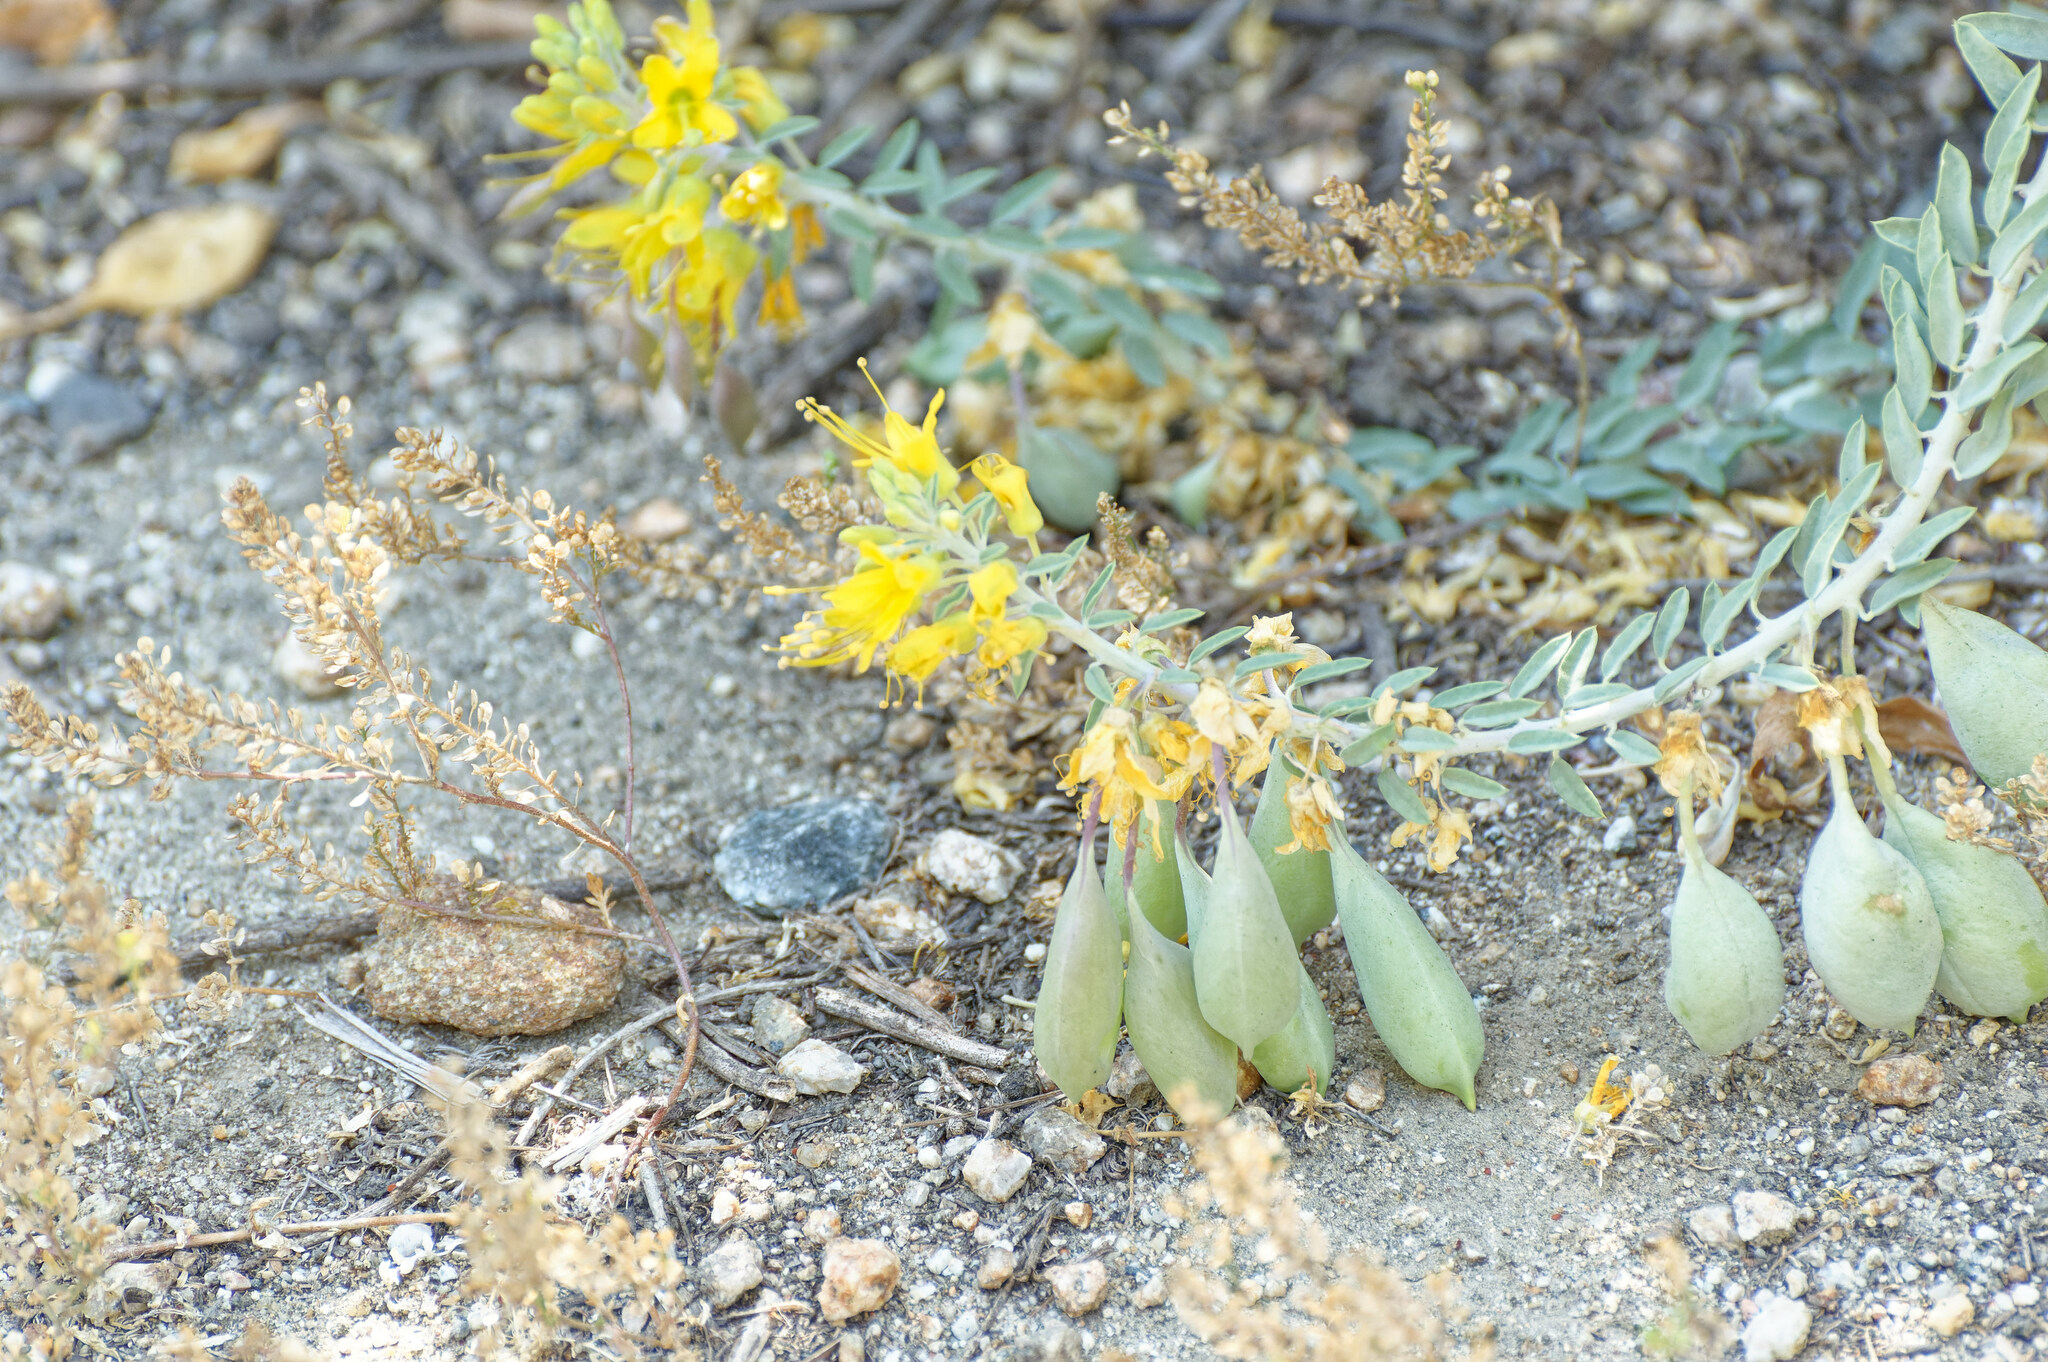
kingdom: Plantae
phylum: Tracheophyta
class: Magnoliopsida
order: Brassicales
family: Cleomaceae
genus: Cleomella
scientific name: Cleomella arborea
